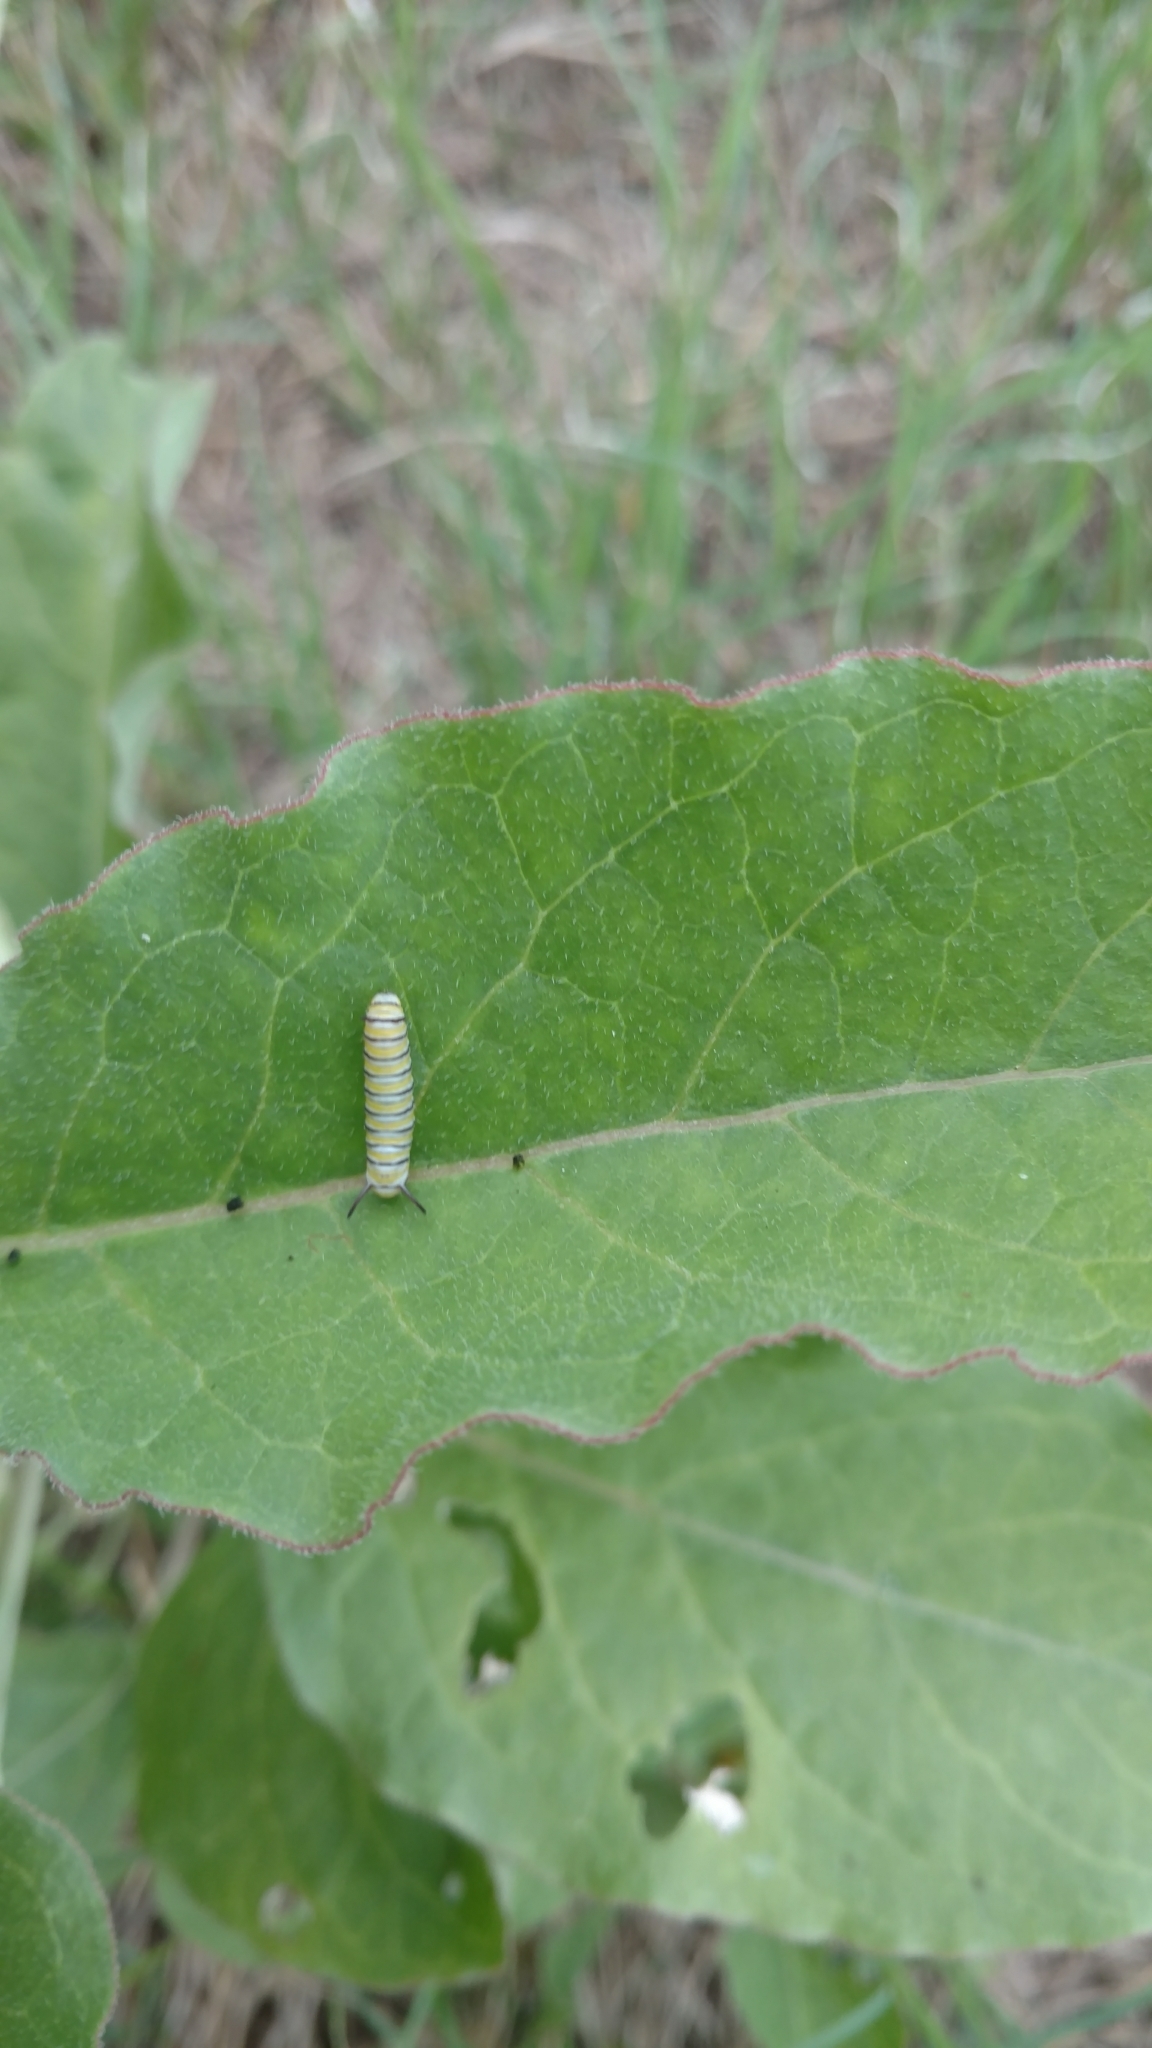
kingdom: Animalia
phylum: Arthropoda
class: Insecta
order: Lepidoptera
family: Nymphalidae
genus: Danaus
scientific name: Danaus plexippus
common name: Monarch
